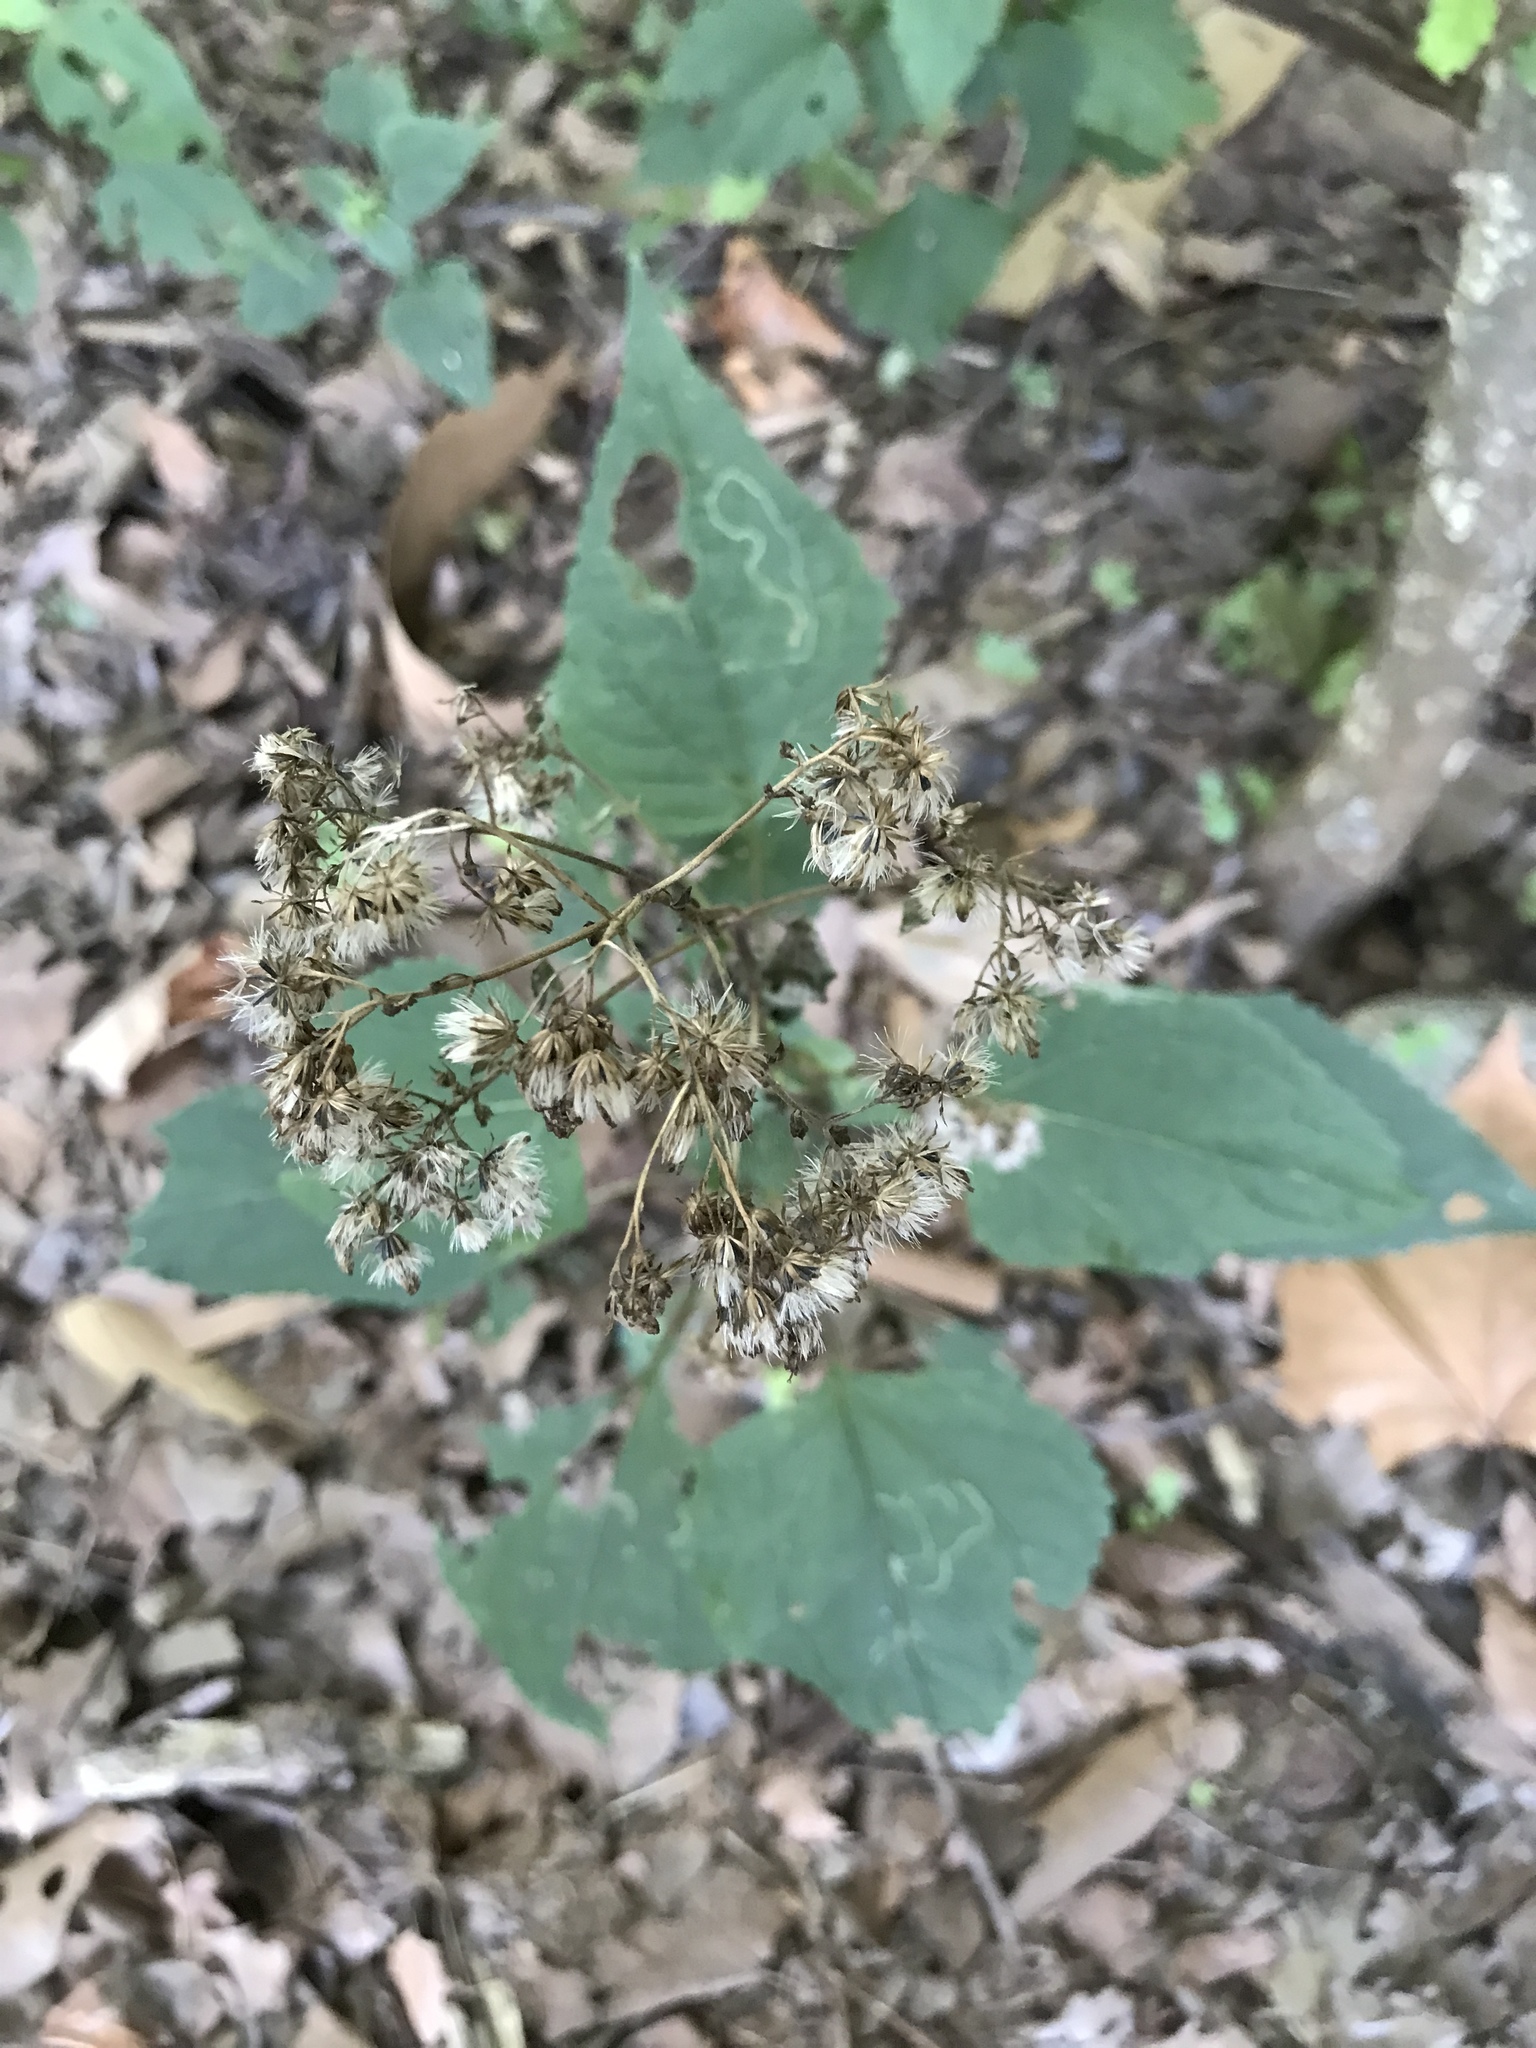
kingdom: Plantae
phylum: Tracheophyta
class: Magnoliopsida
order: Asterales
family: Asteraceae
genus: Ageratina
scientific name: Ageratina altissima
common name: White snakeroot
